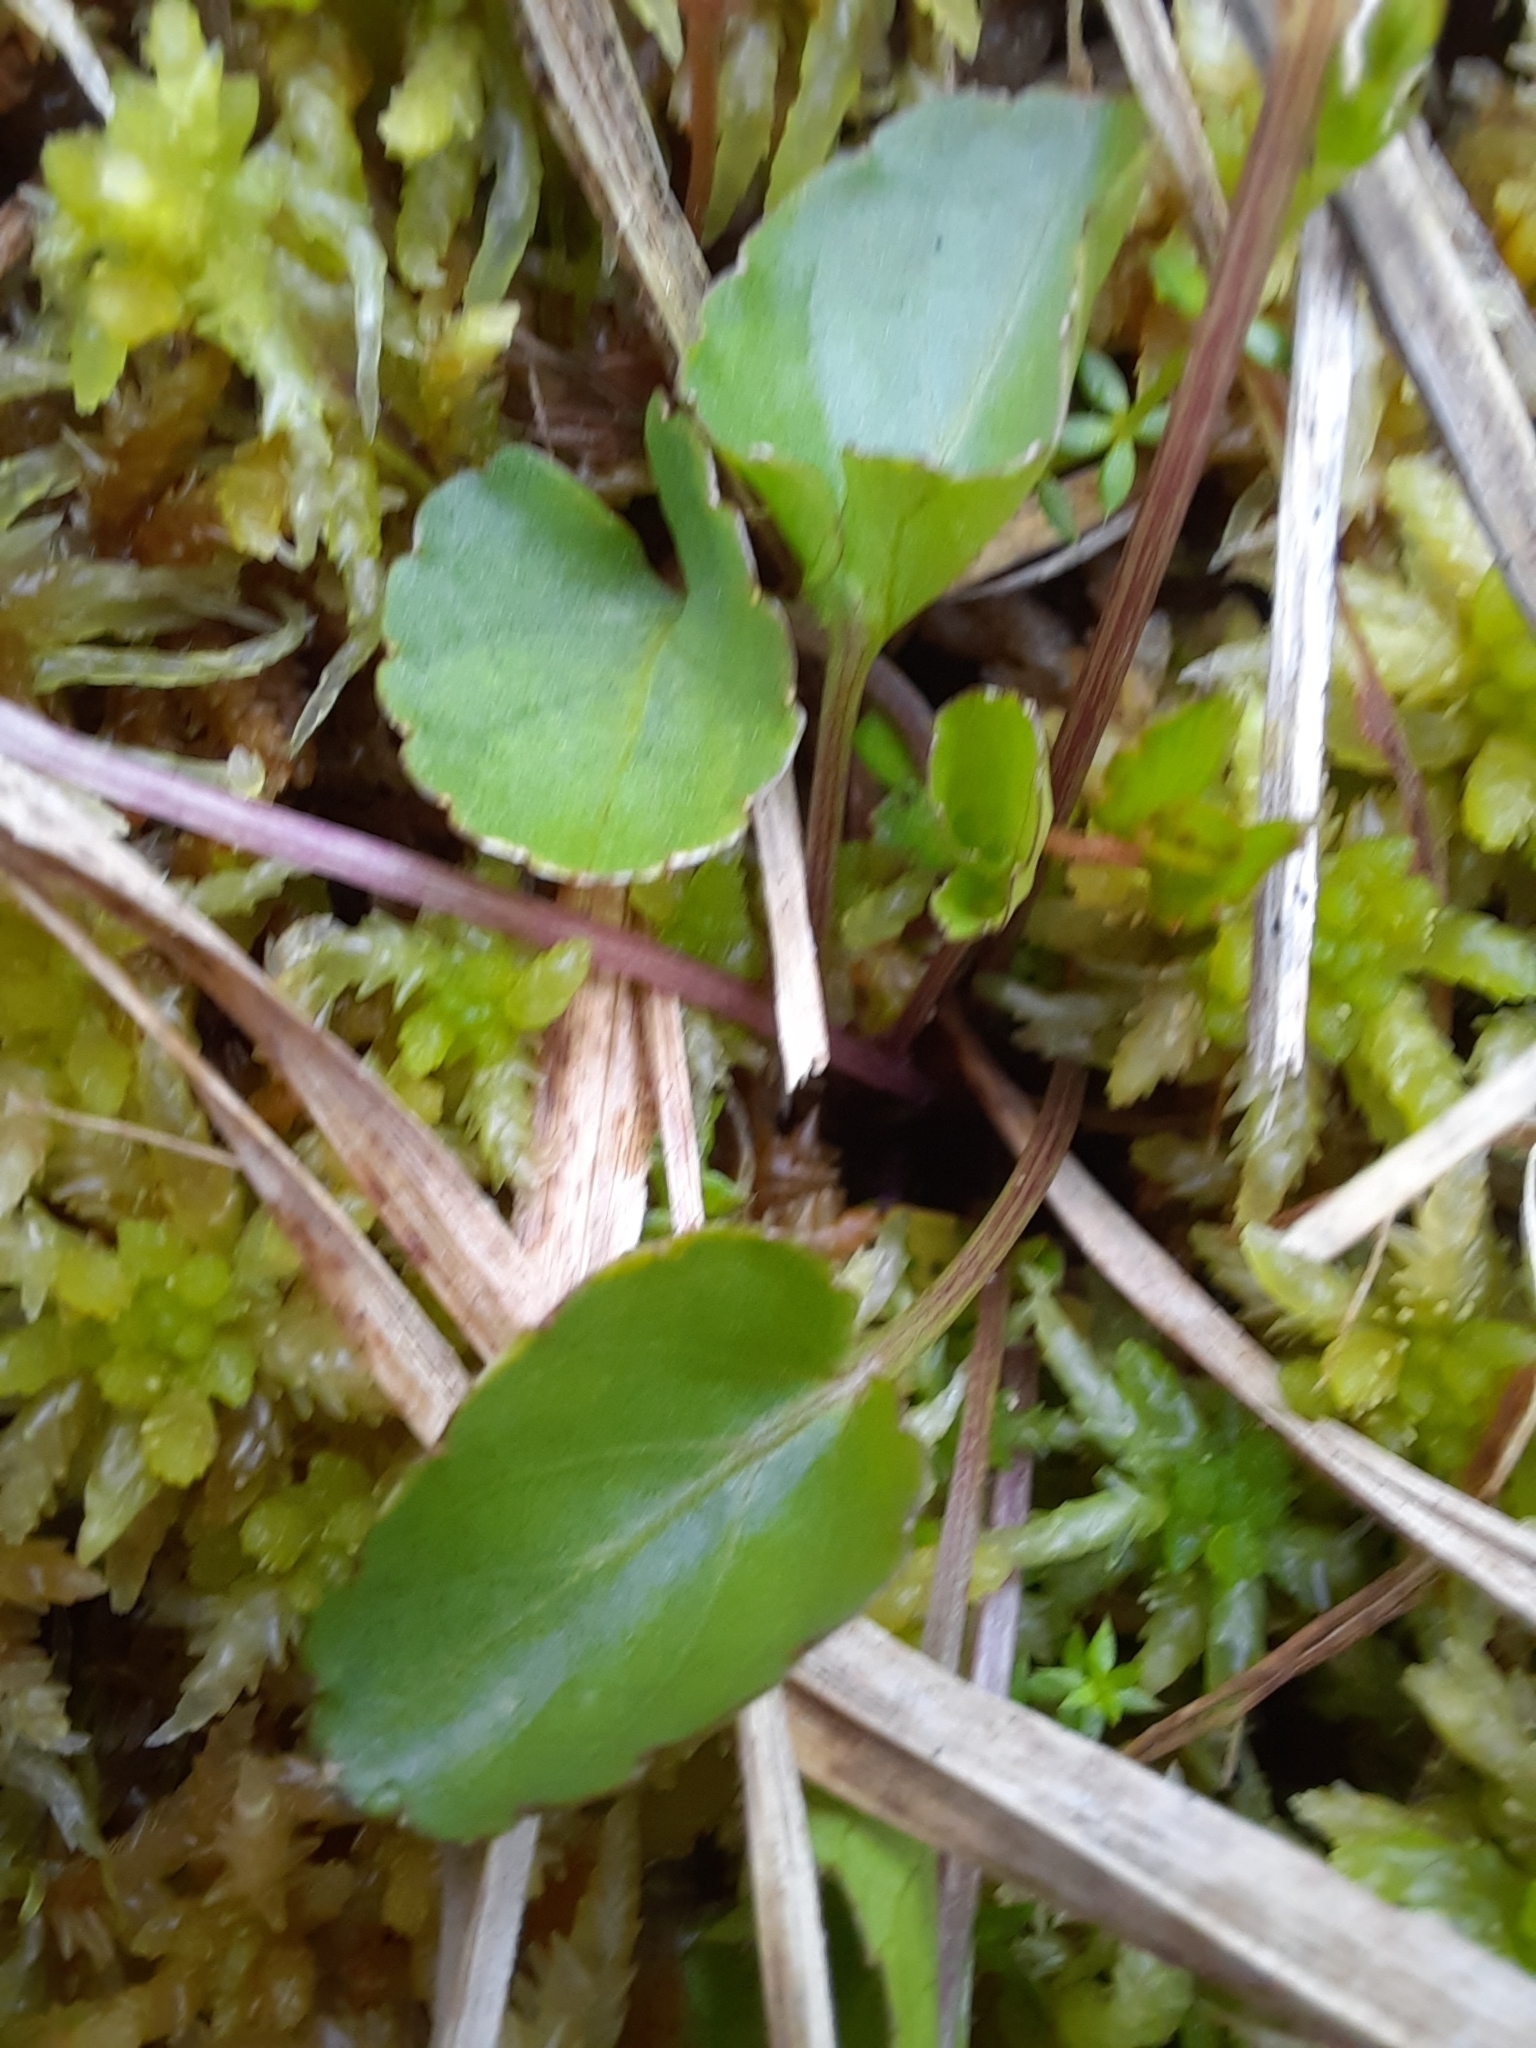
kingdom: Plantae
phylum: Tracheophyta
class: Magnoliopsida
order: Malpighiales
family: Violaceae
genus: Viola
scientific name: Viola cunninghamii
